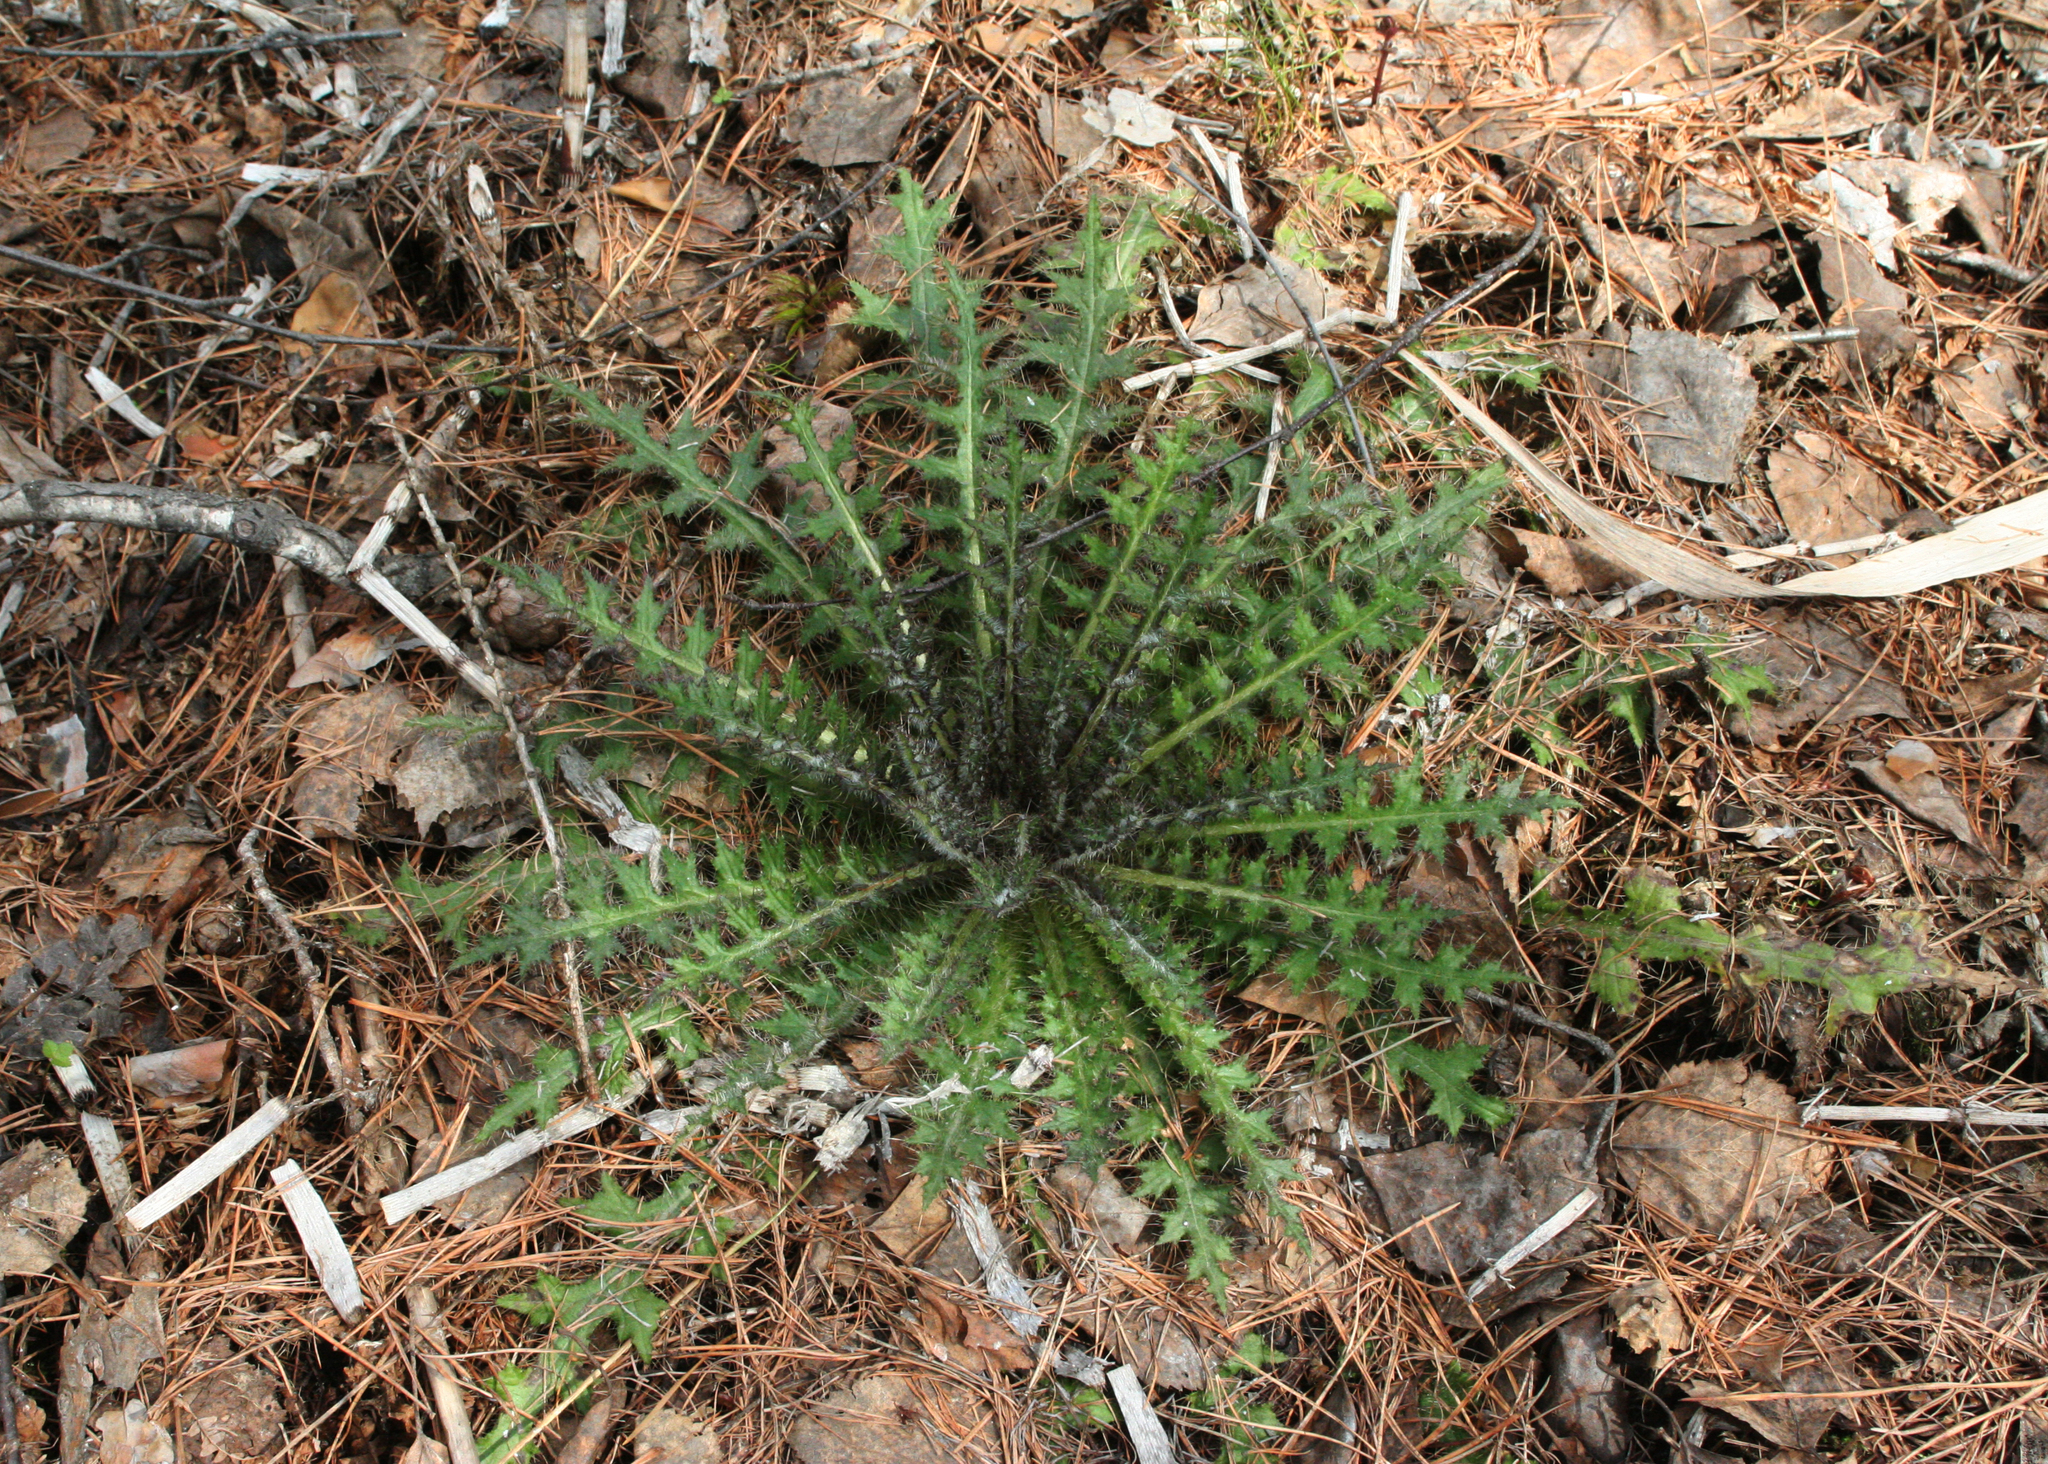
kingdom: Plantae
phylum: Tracheophyta
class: Magnoliopsida
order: Asterales
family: Asteraceae
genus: Cirsium
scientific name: Cirsium palustre
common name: Marsh thistle
